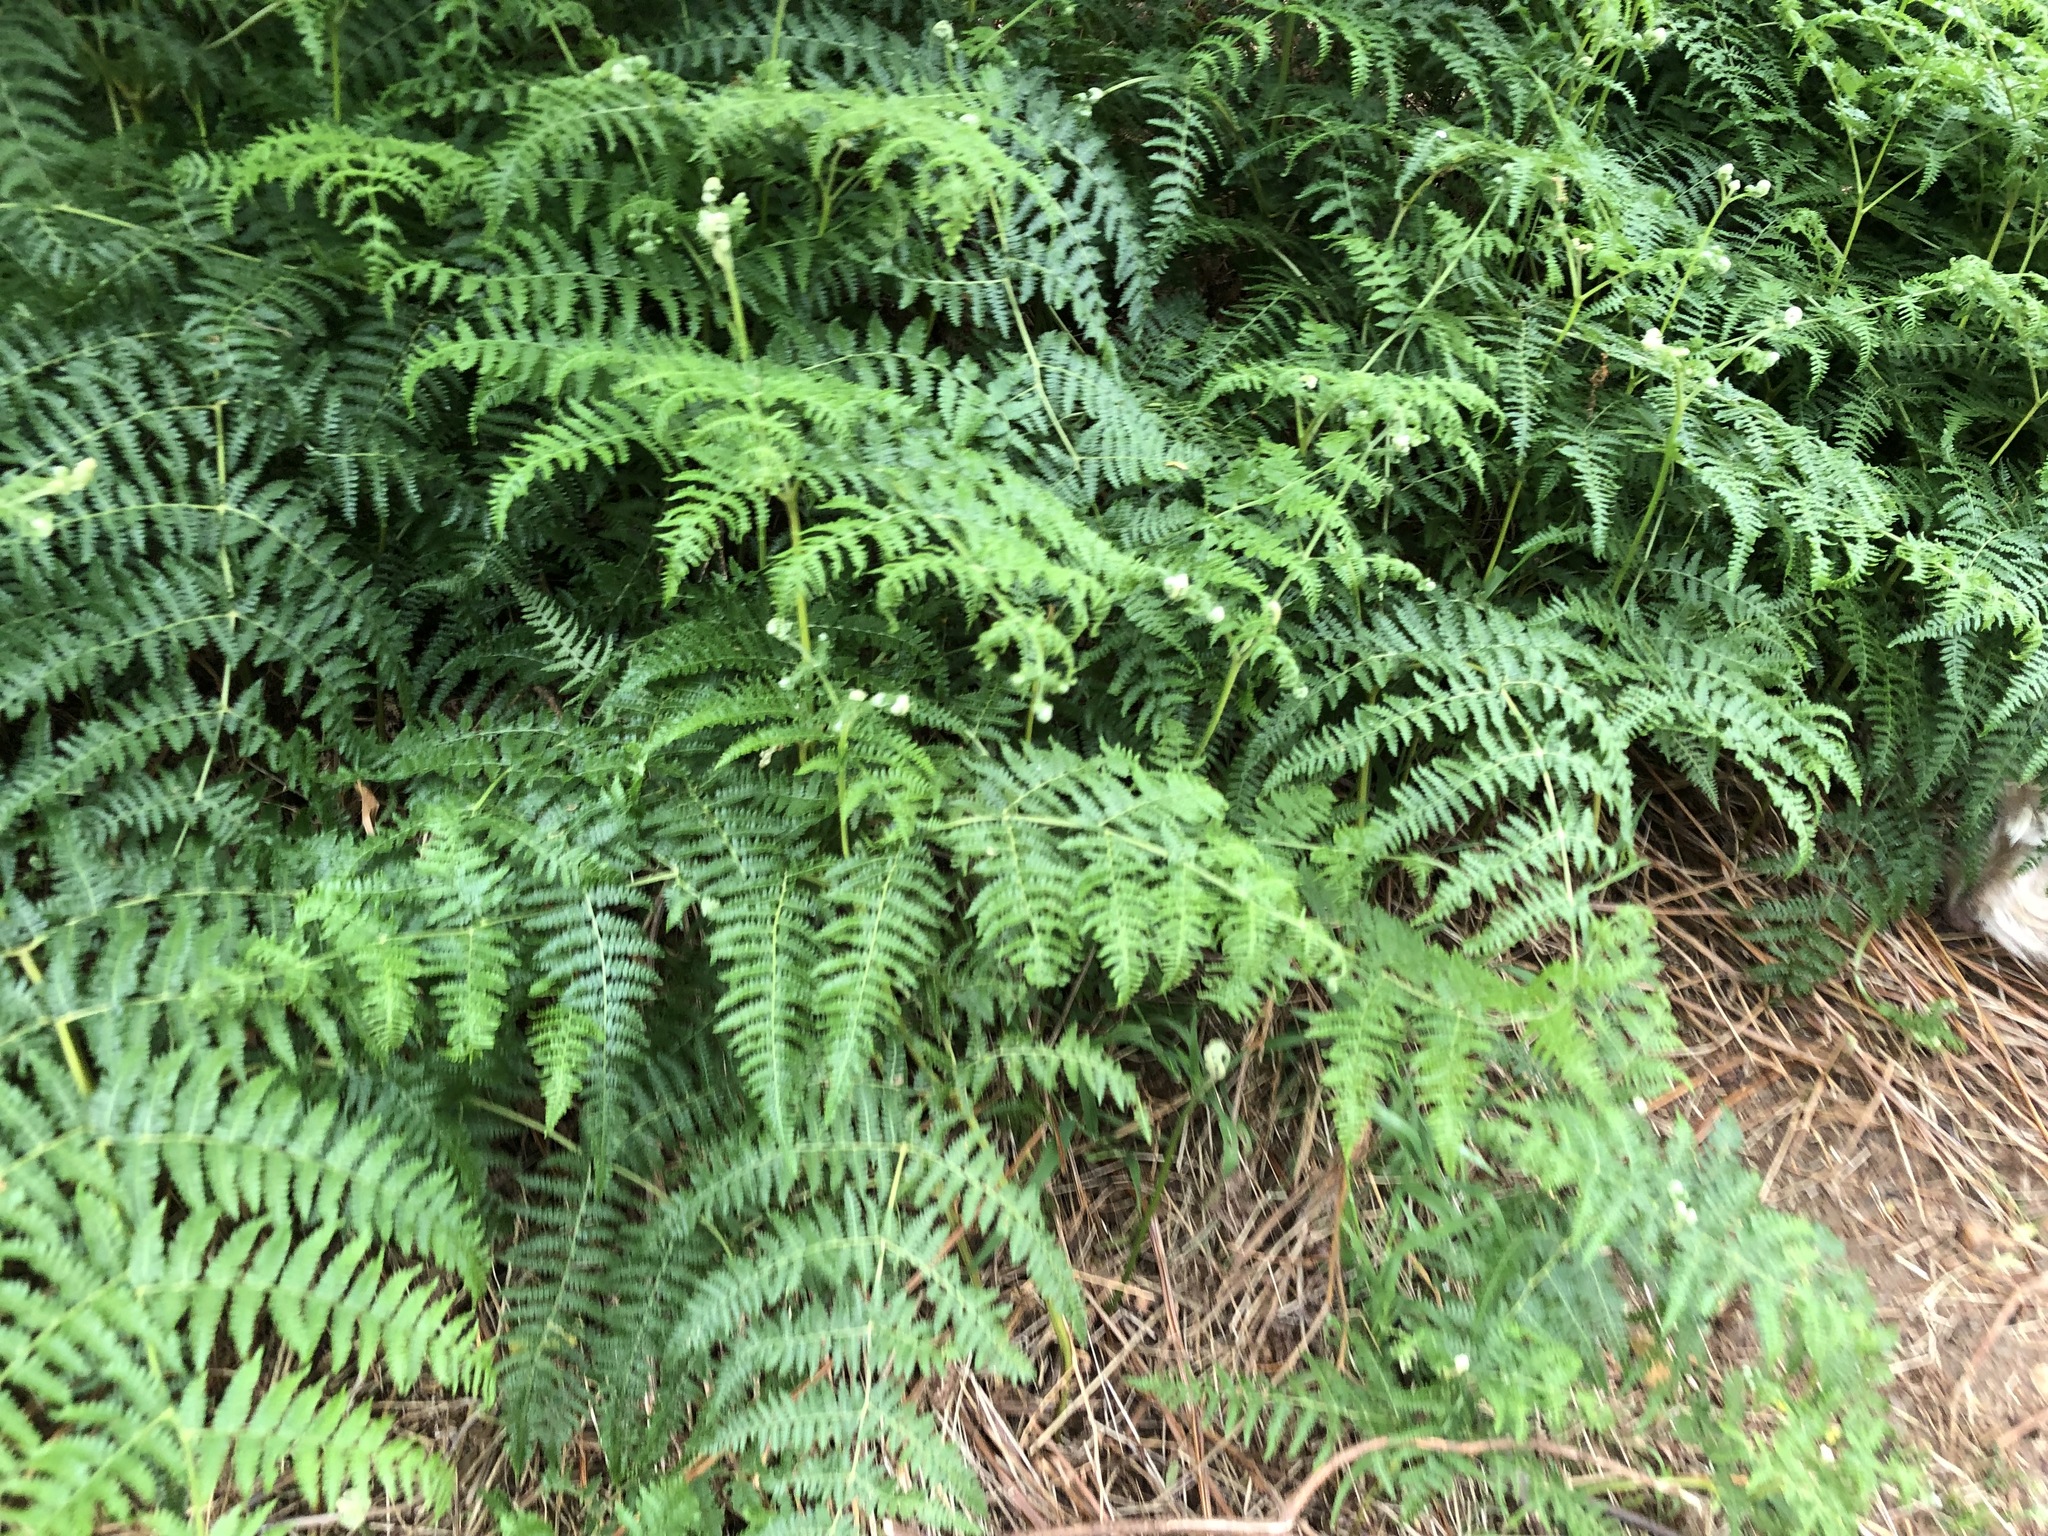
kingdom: Plantae
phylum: Tracheophyta
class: Polypodiopsida
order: Polypodiales
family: Dennstaedtiaceae
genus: Pteridium
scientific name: Pteridium aquilinum
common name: Bracken
